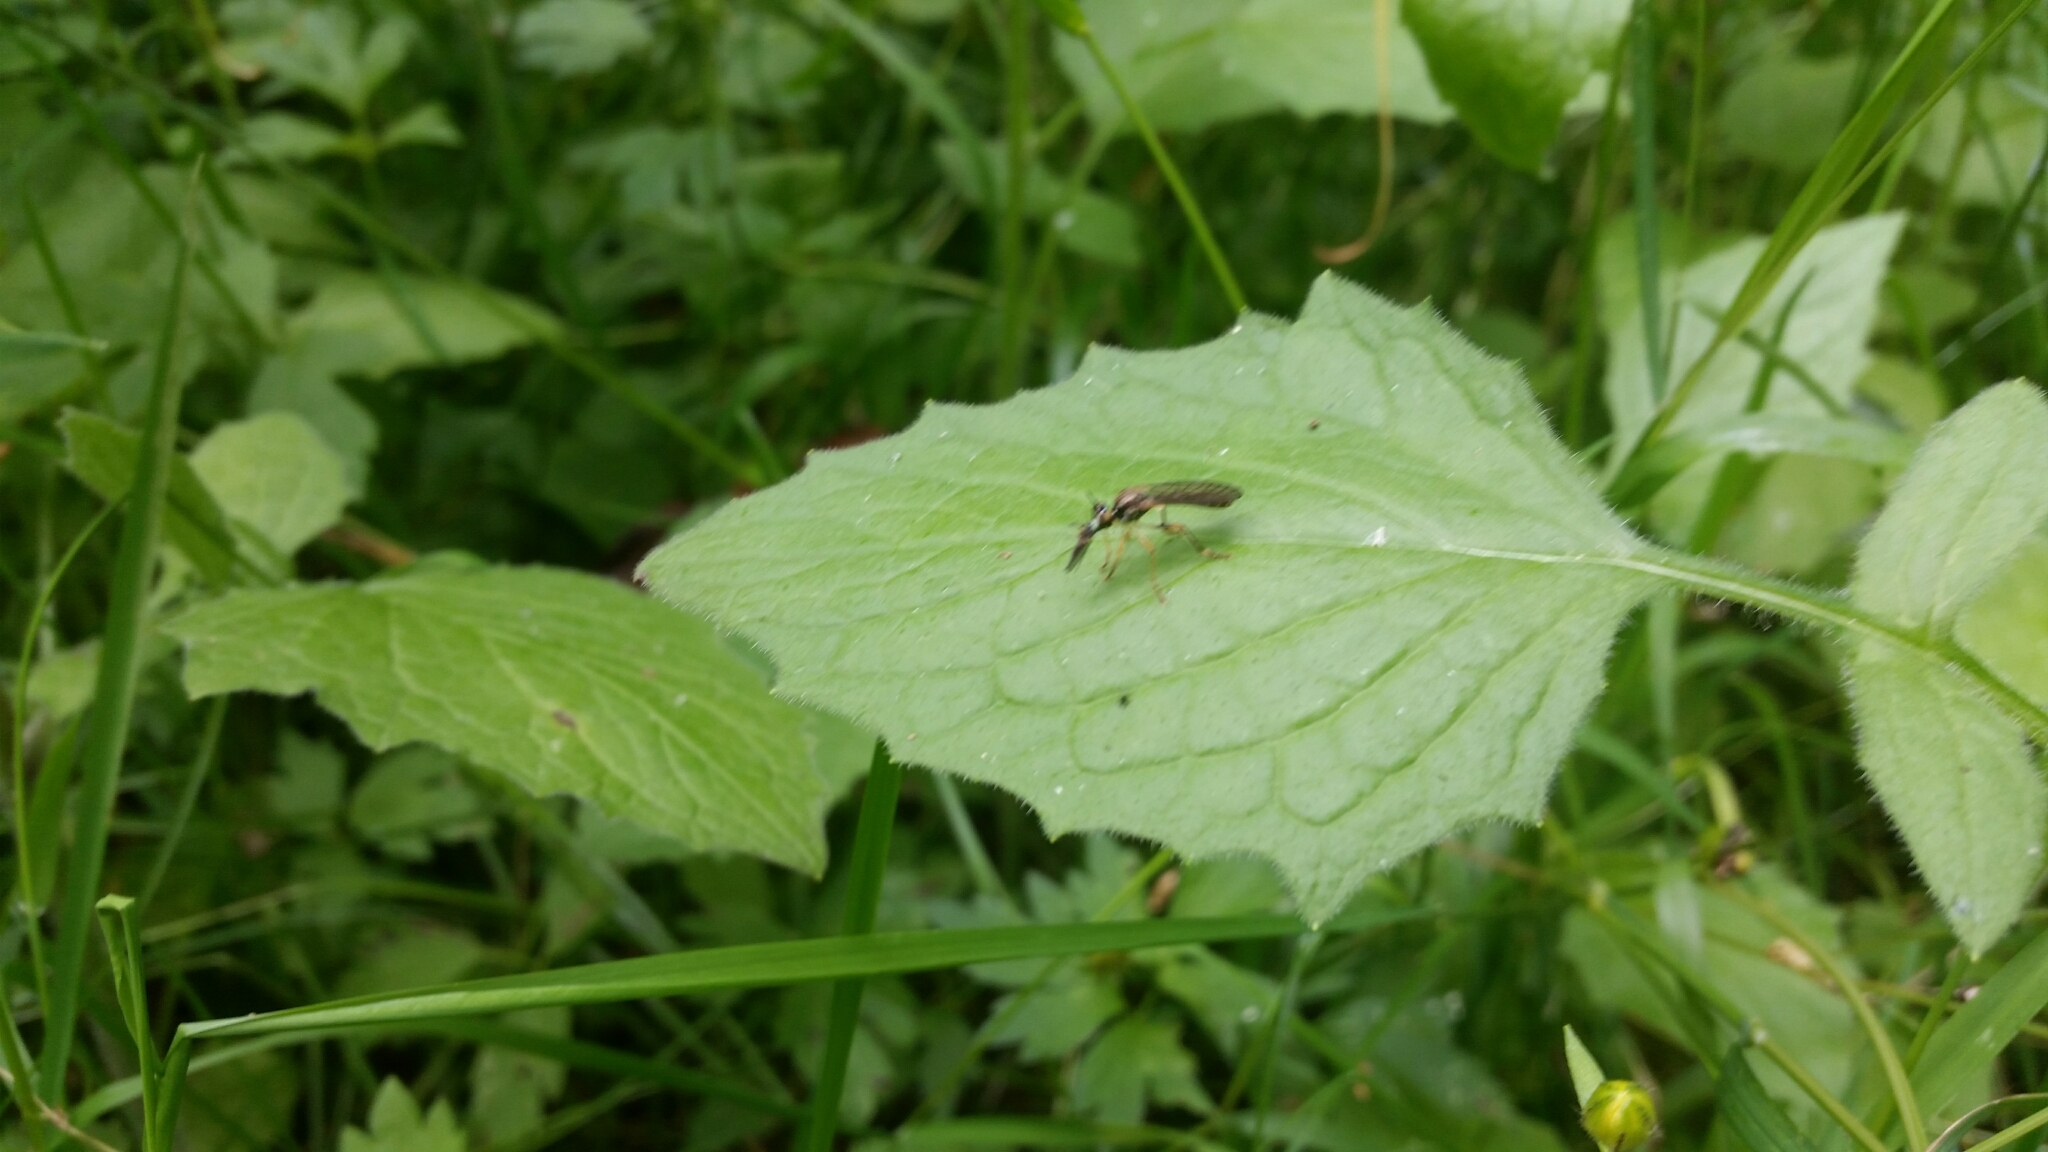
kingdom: Animalia
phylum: Arthropoda
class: Insecta
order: Diptera
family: Asilidae
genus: Dioctria
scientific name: Dioctria linearis
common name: Small yellow-legged robberfly
